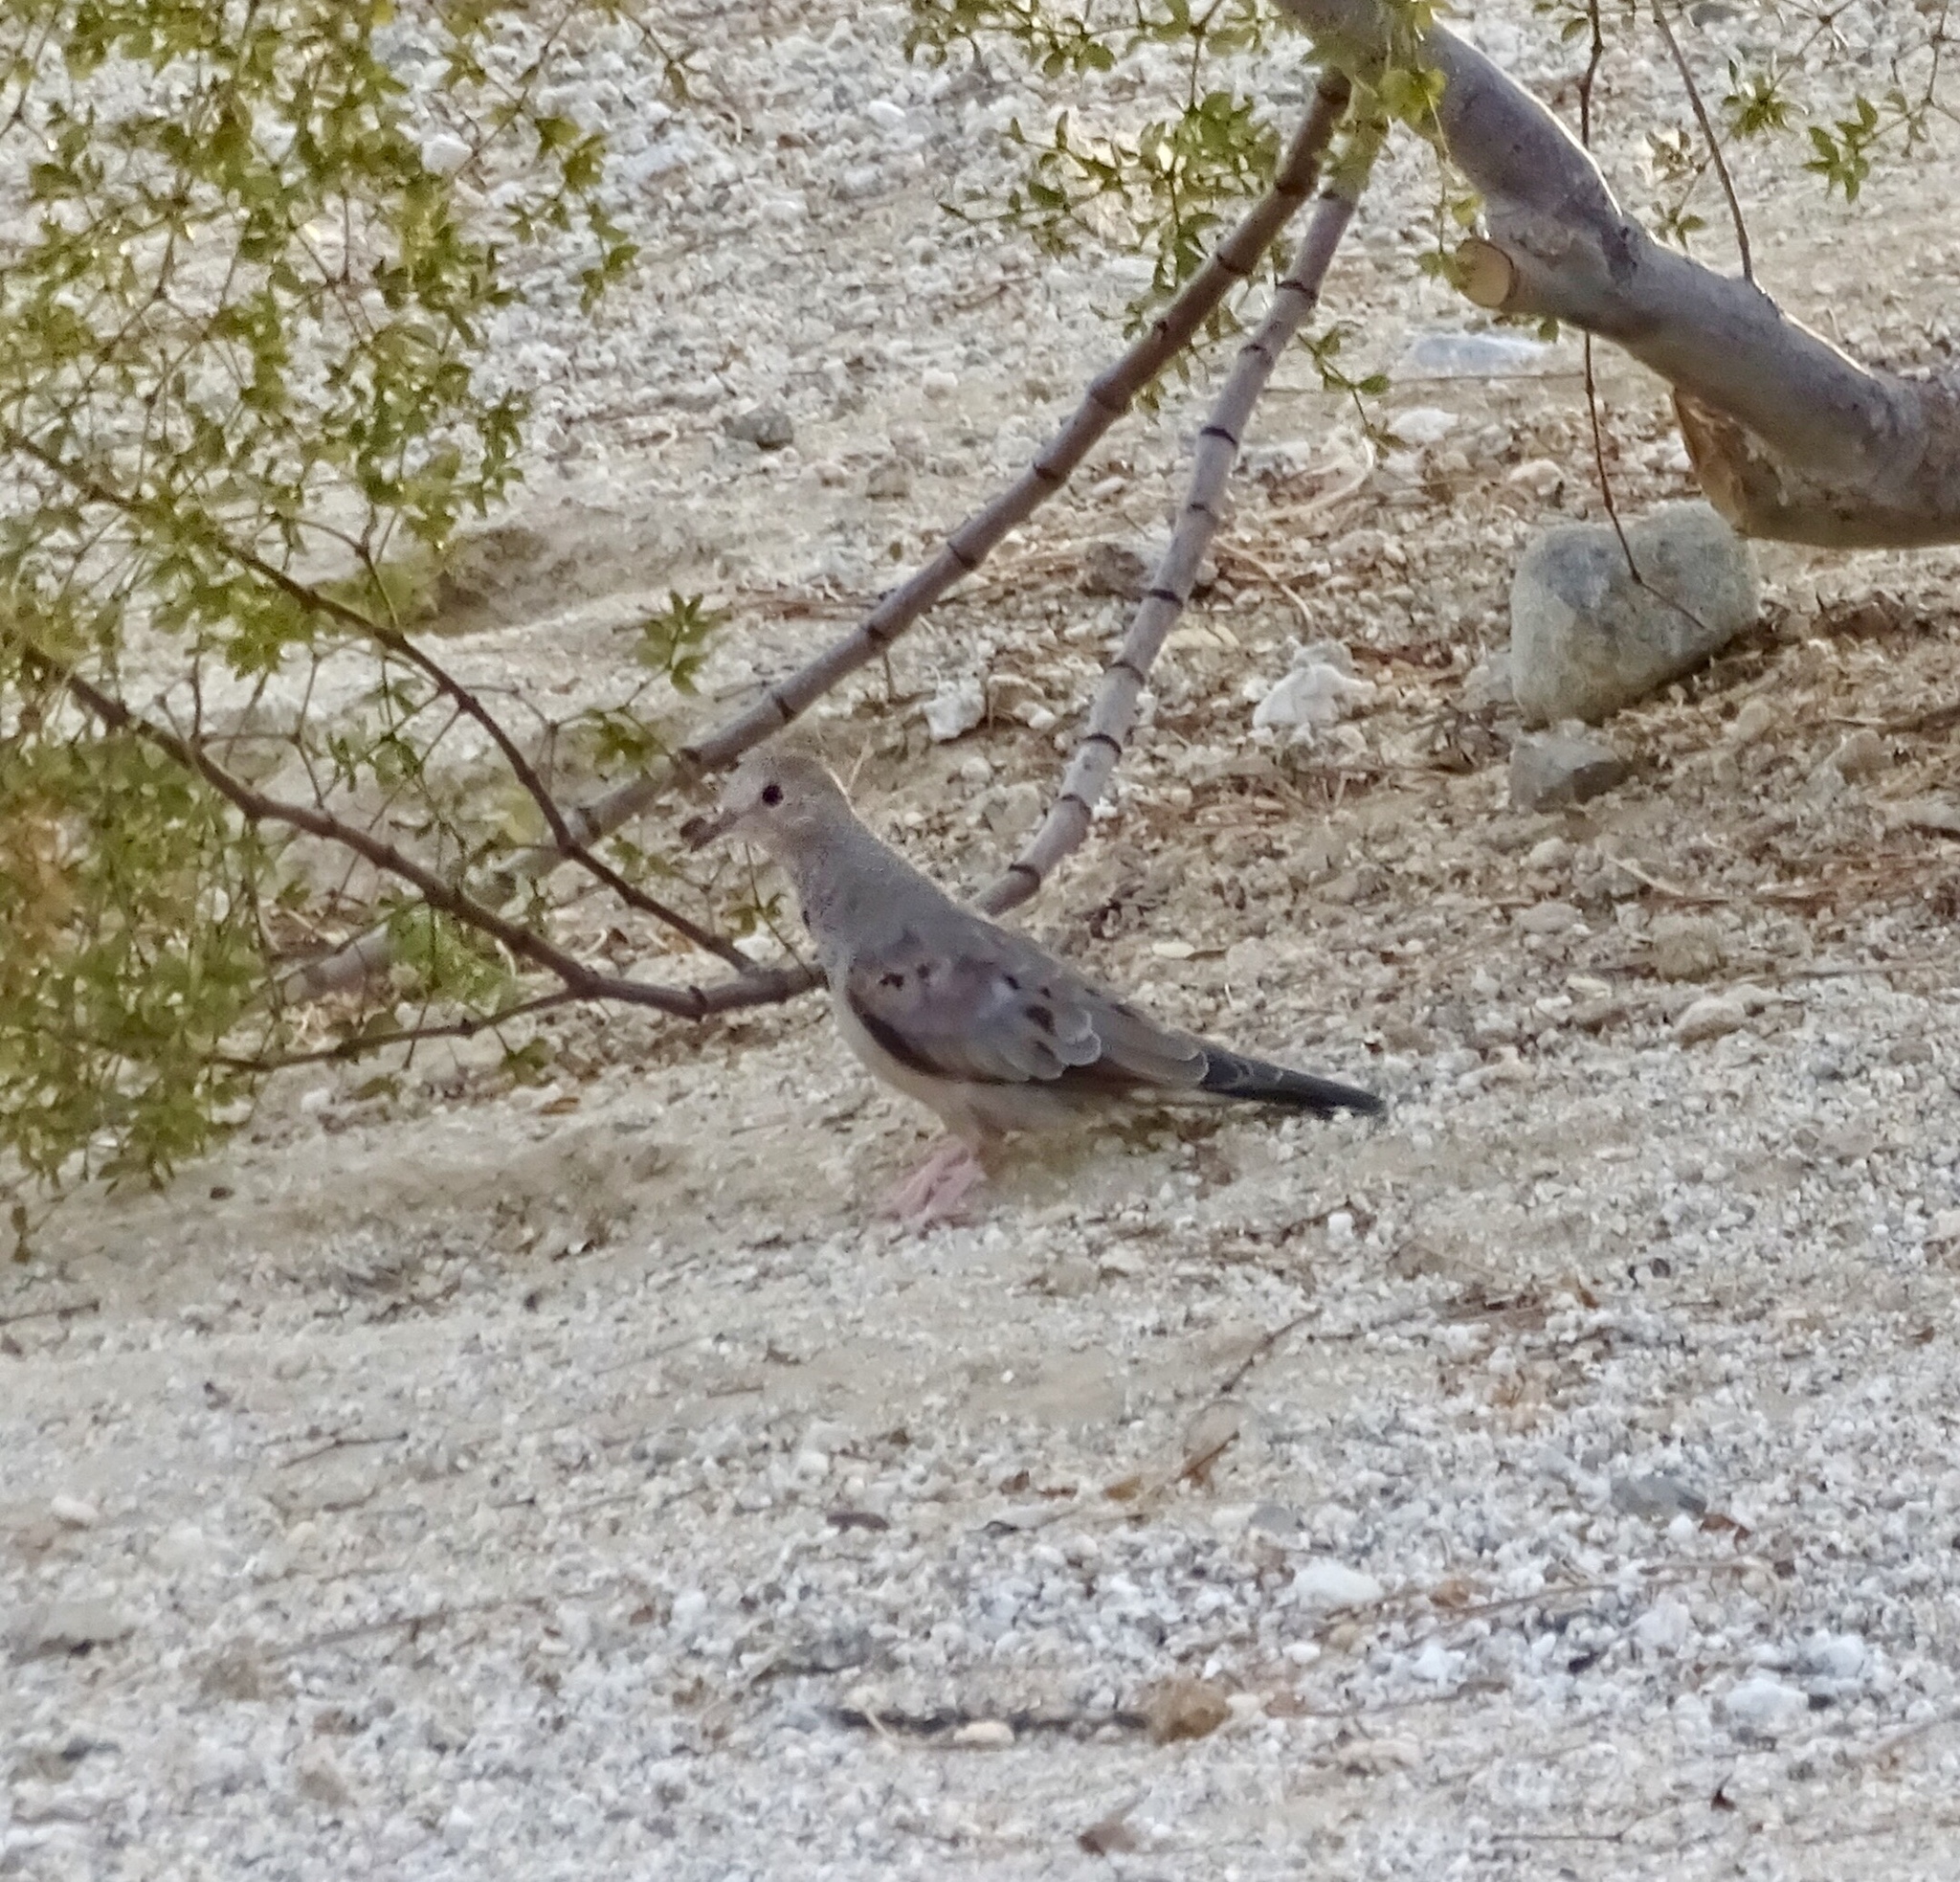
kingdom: Animalia
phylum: Chordata
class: Aves
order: Columbiformes
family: Columbidae
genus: Columbina
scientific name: Columbina passerina
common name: Common ground-dove
